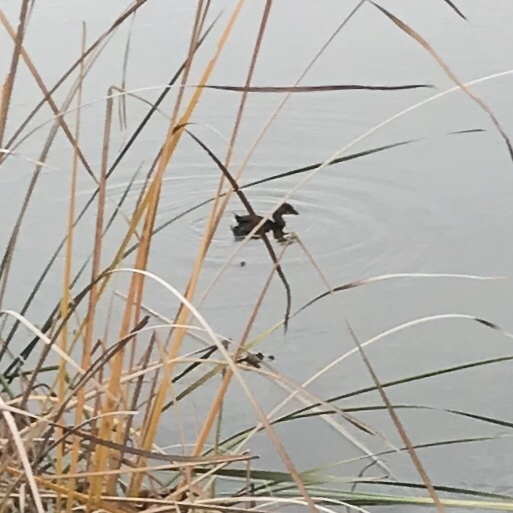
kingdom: Animalia
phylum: Chordata
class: Aves
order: Podicipediformes
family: Podicipedidae
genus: Podilymbus
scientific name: Podilymbus podiceps
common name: Pied-billed grebe
